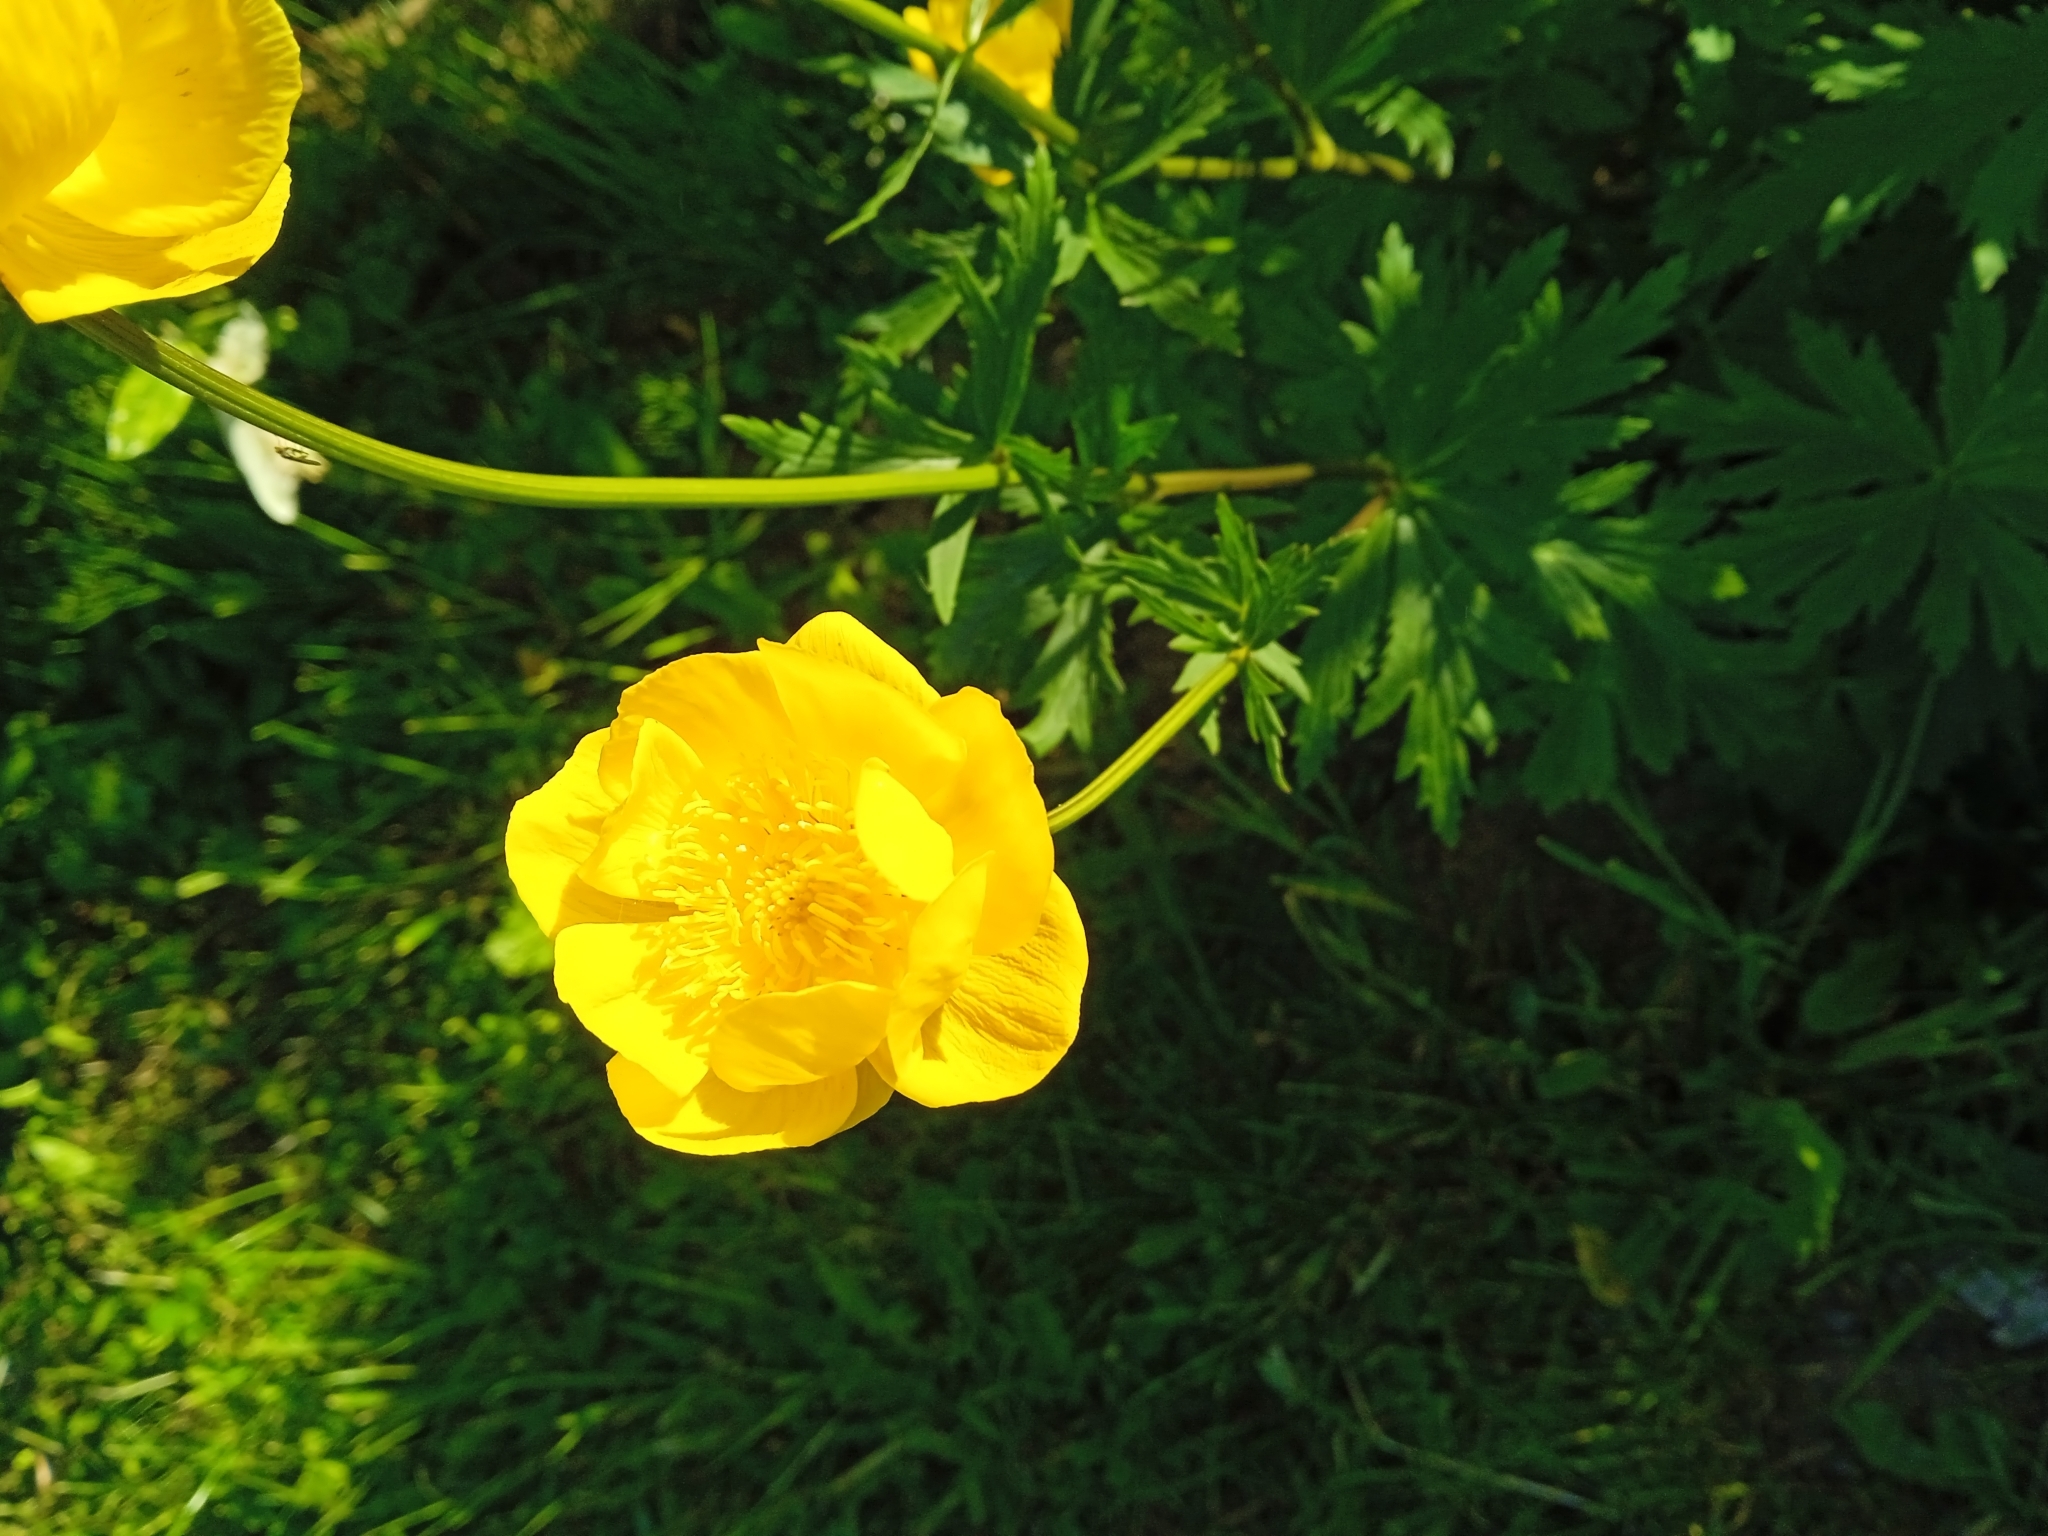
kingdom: Plantae
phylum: Tracheophyta
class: Magnoliopsida
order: Ranunculales
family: Ranunculaceae
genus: Trollius
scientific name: Trollius europaeus
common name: European globeflower
